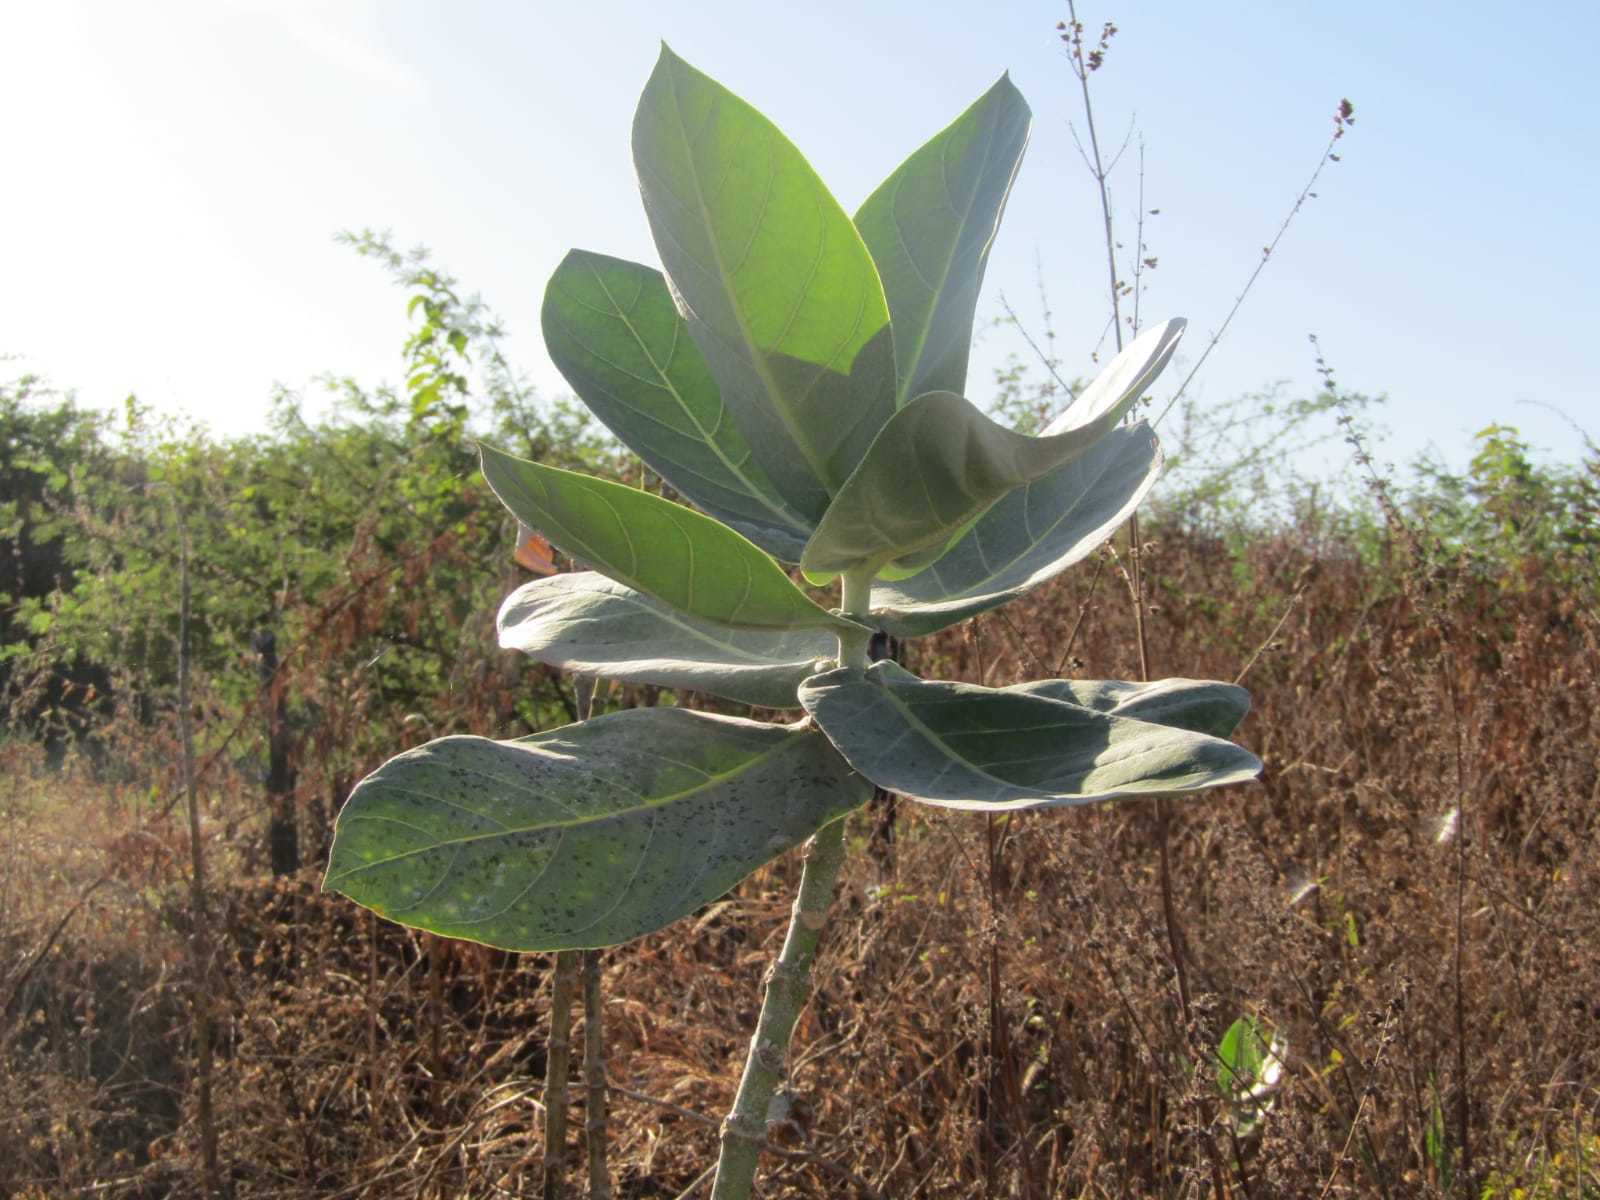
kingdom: Plantae
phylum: Tracheophyta
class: Magnoliopsida
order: Gentianales
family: Apocynaceae
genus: Calotropis
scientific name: Calotropis procera
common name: Roostertree
